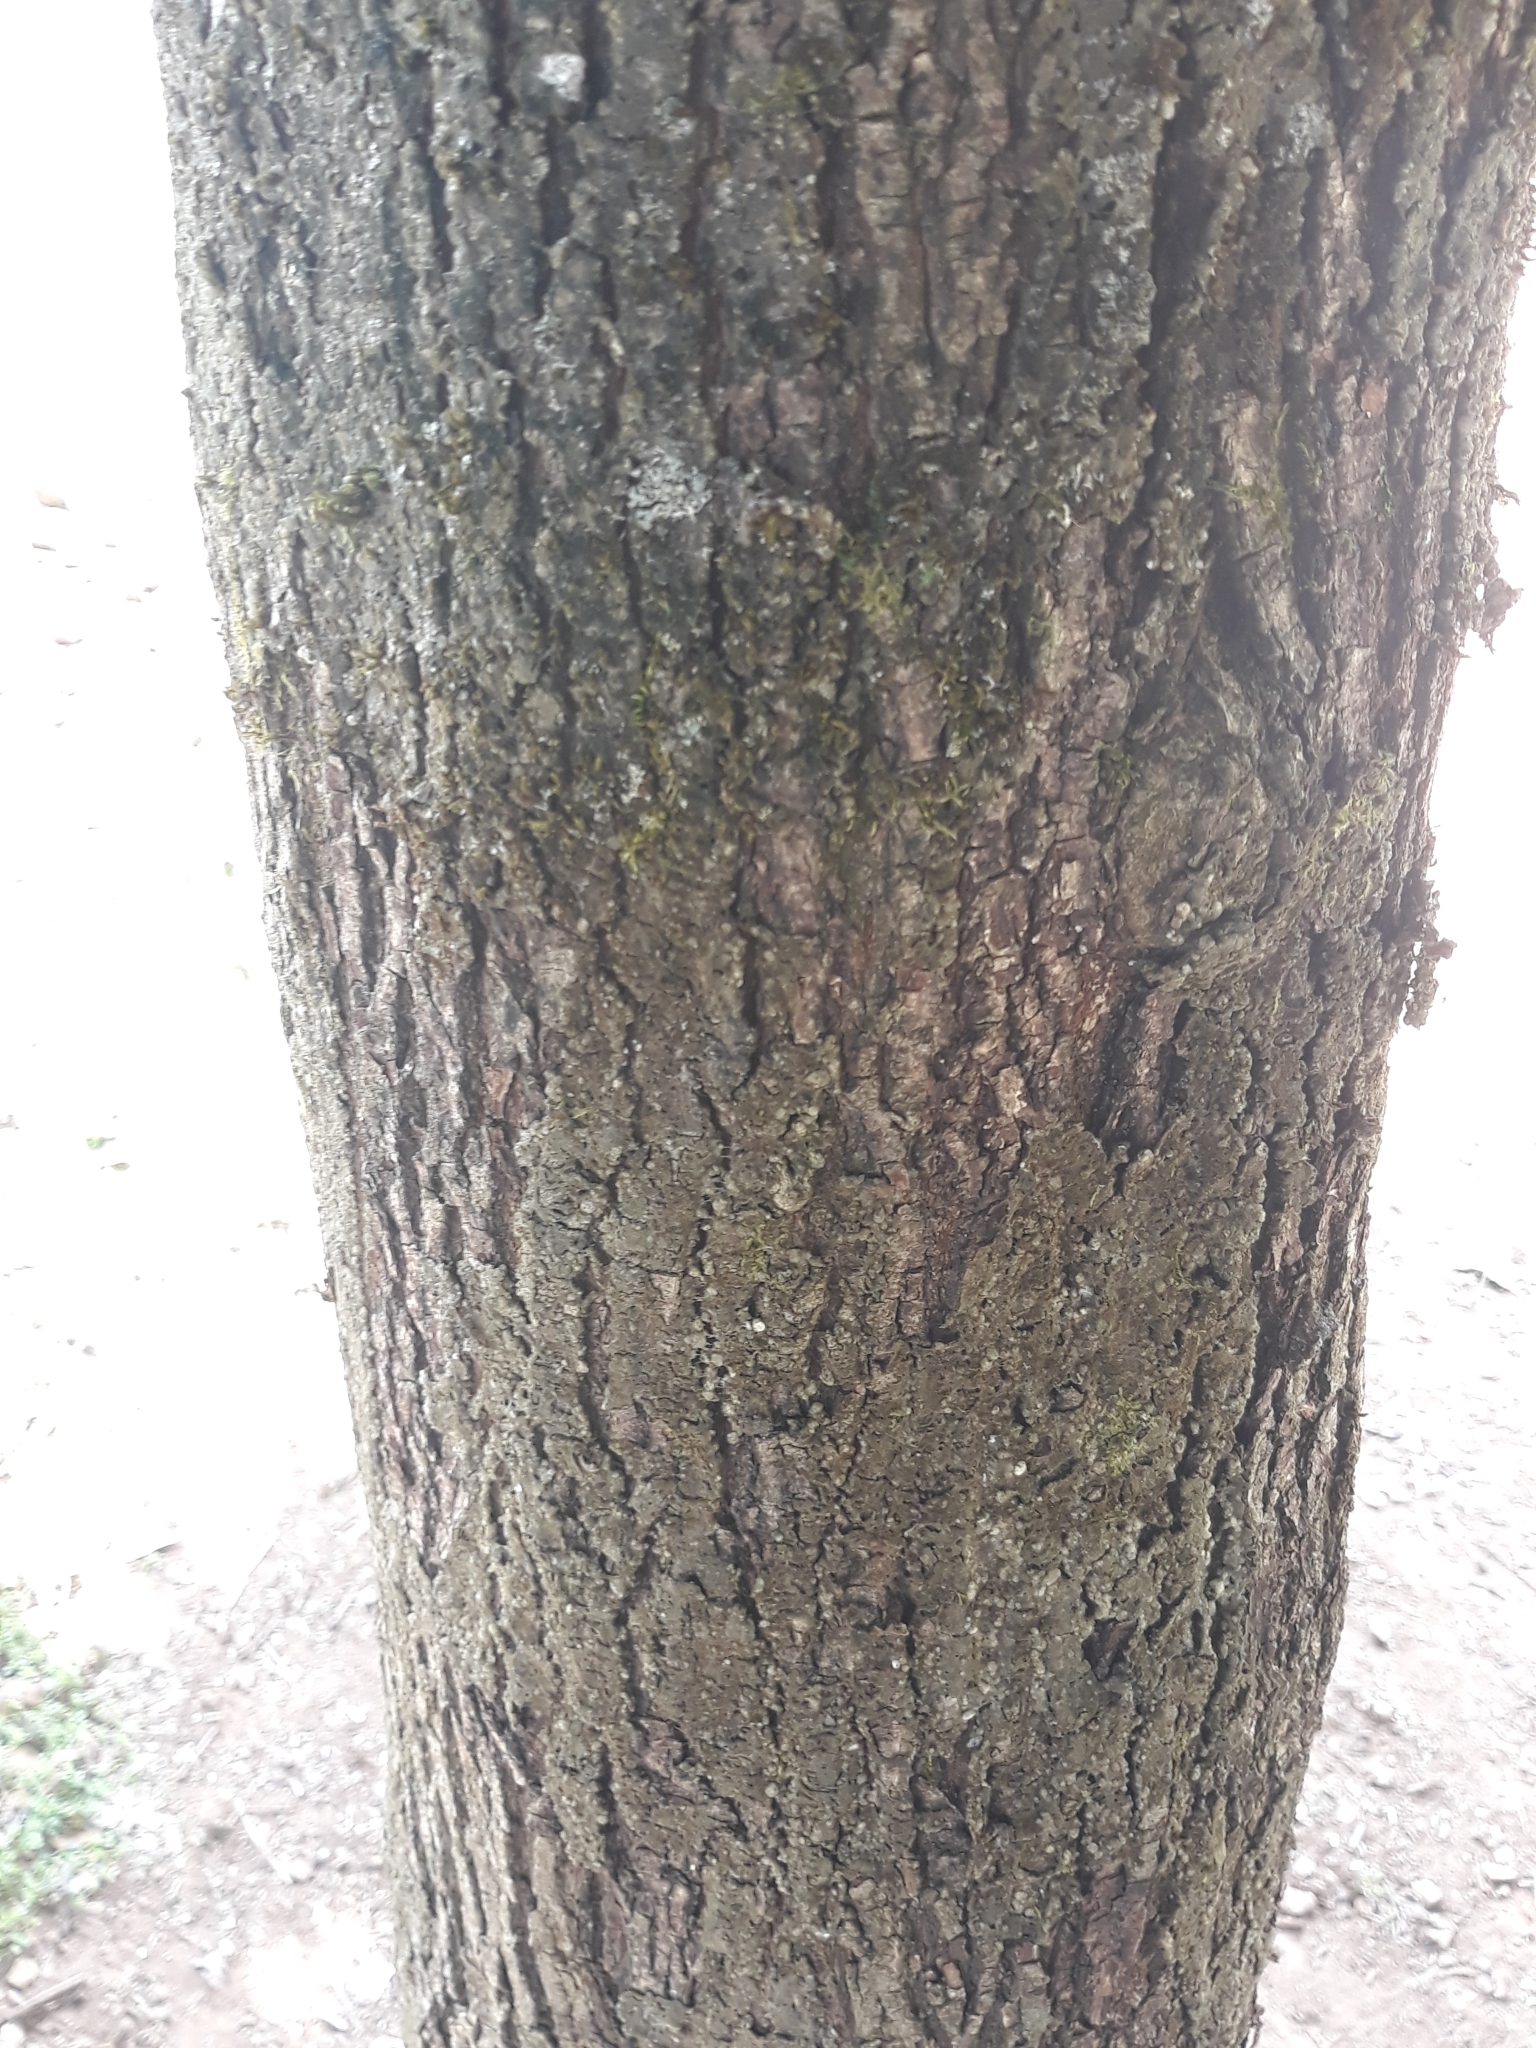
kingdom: Plantae
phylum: Tracheophyta
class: Magnoliopsida
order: Sapindales
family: Sapindaceae
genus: Acer
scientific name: Acer platanoides
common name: Norway maple
